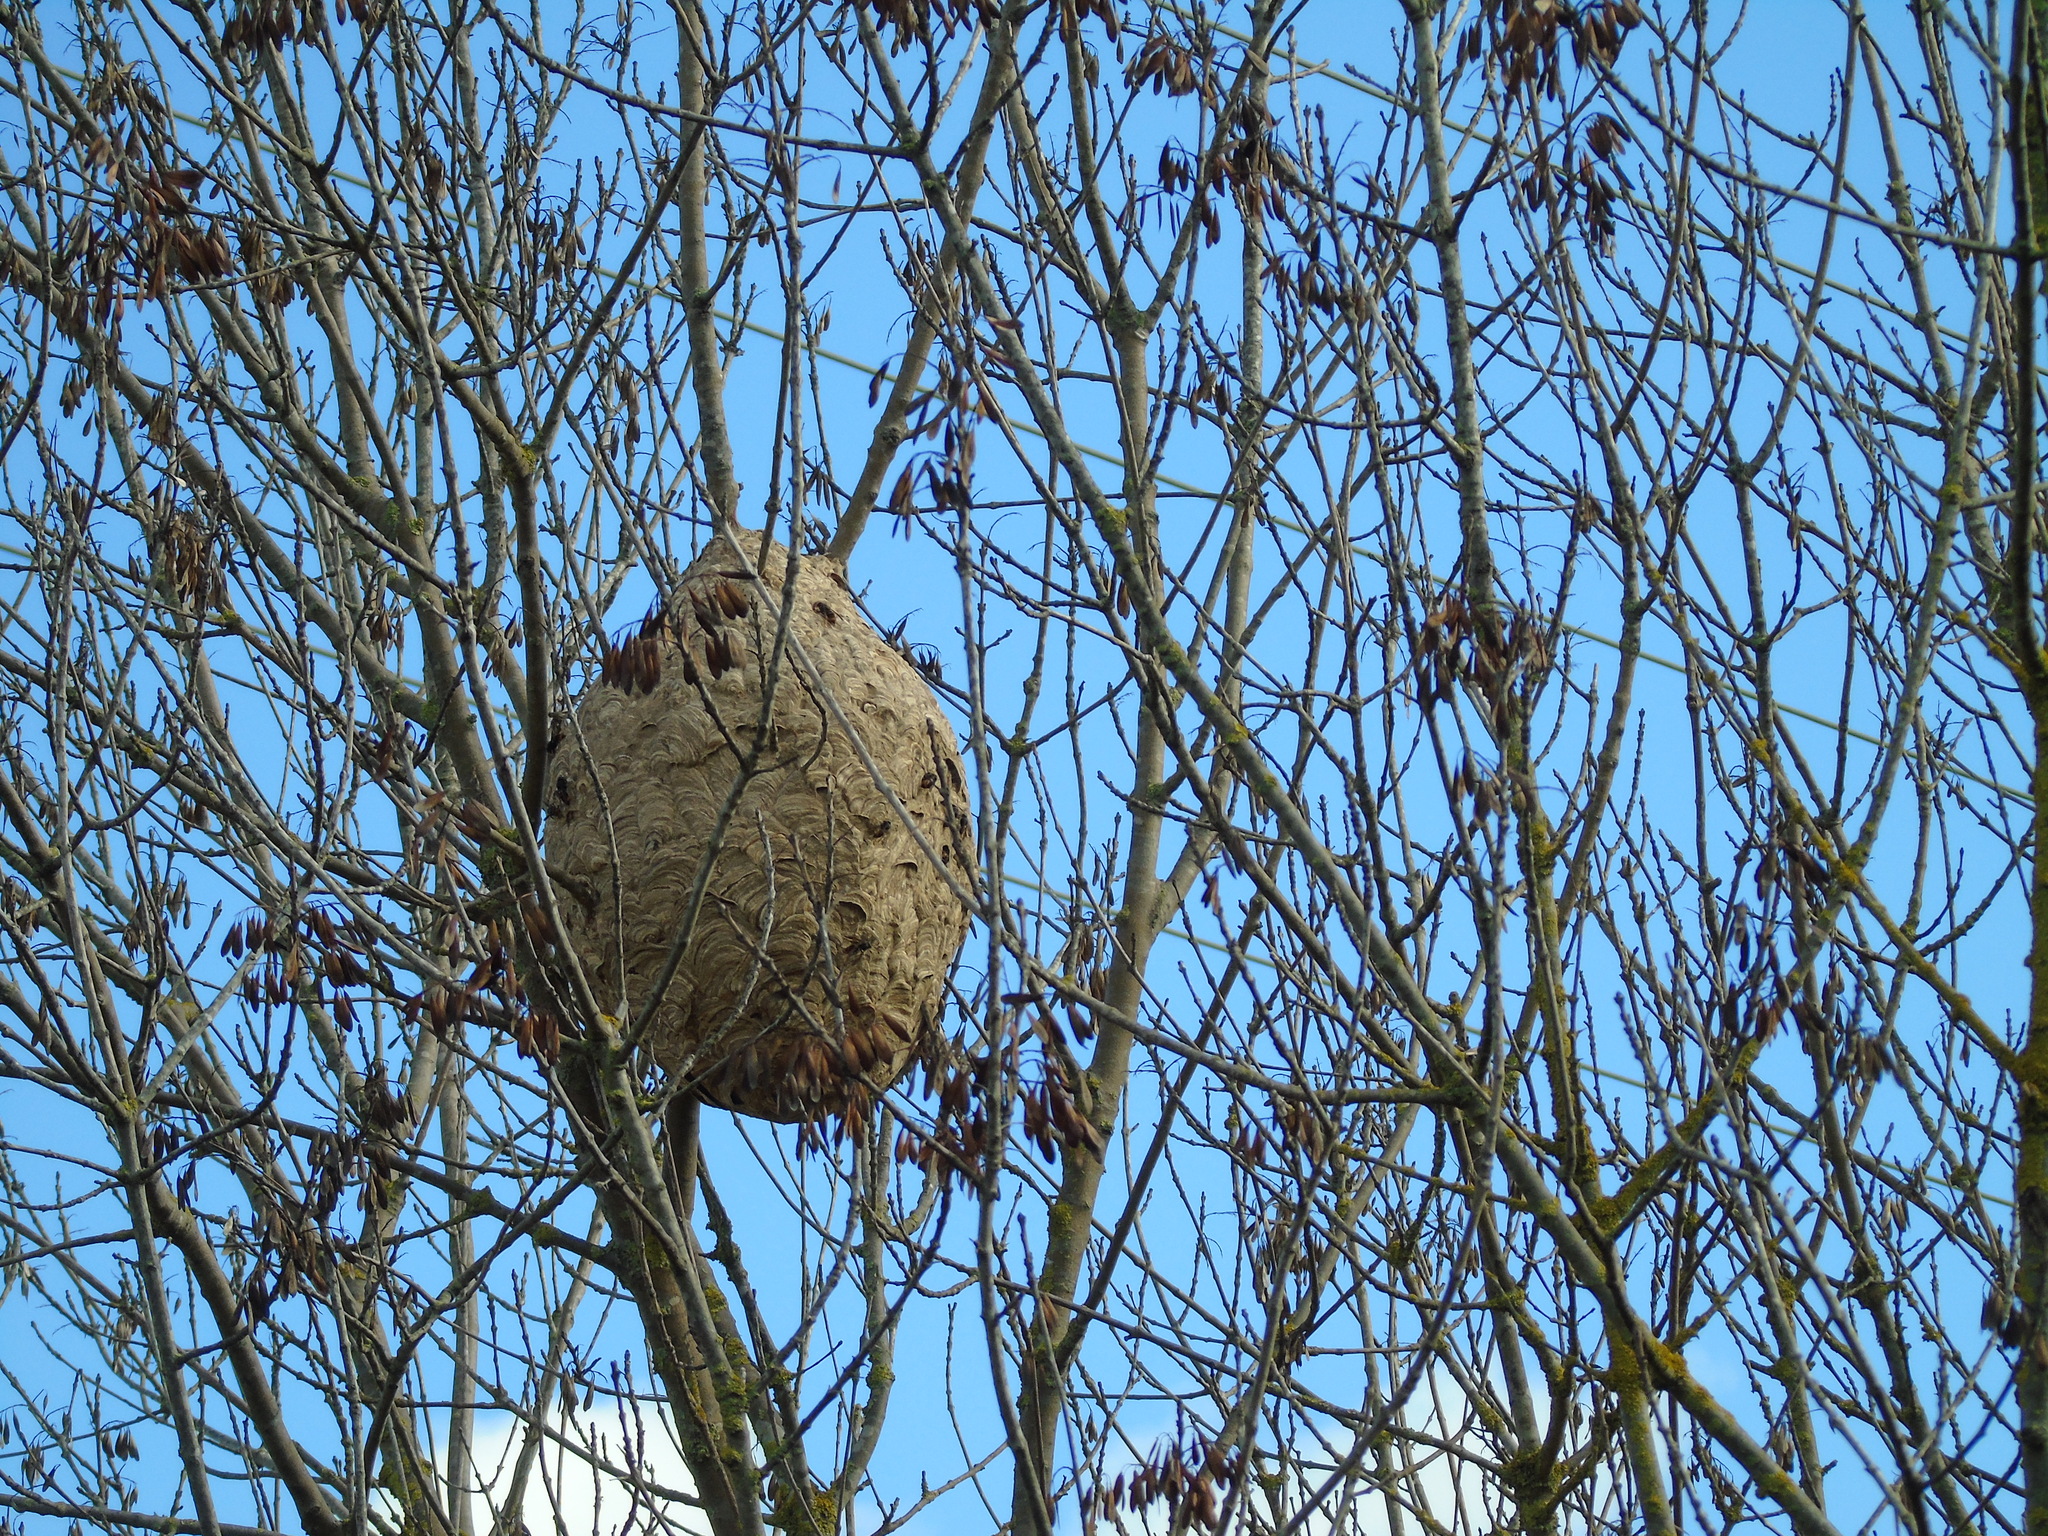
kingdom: Animalia
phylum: Arthropoda
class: Insecta
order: Hymenoptera
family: Vespidae
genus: Vespa
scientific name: Vespa velutina
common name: Asian hornet
